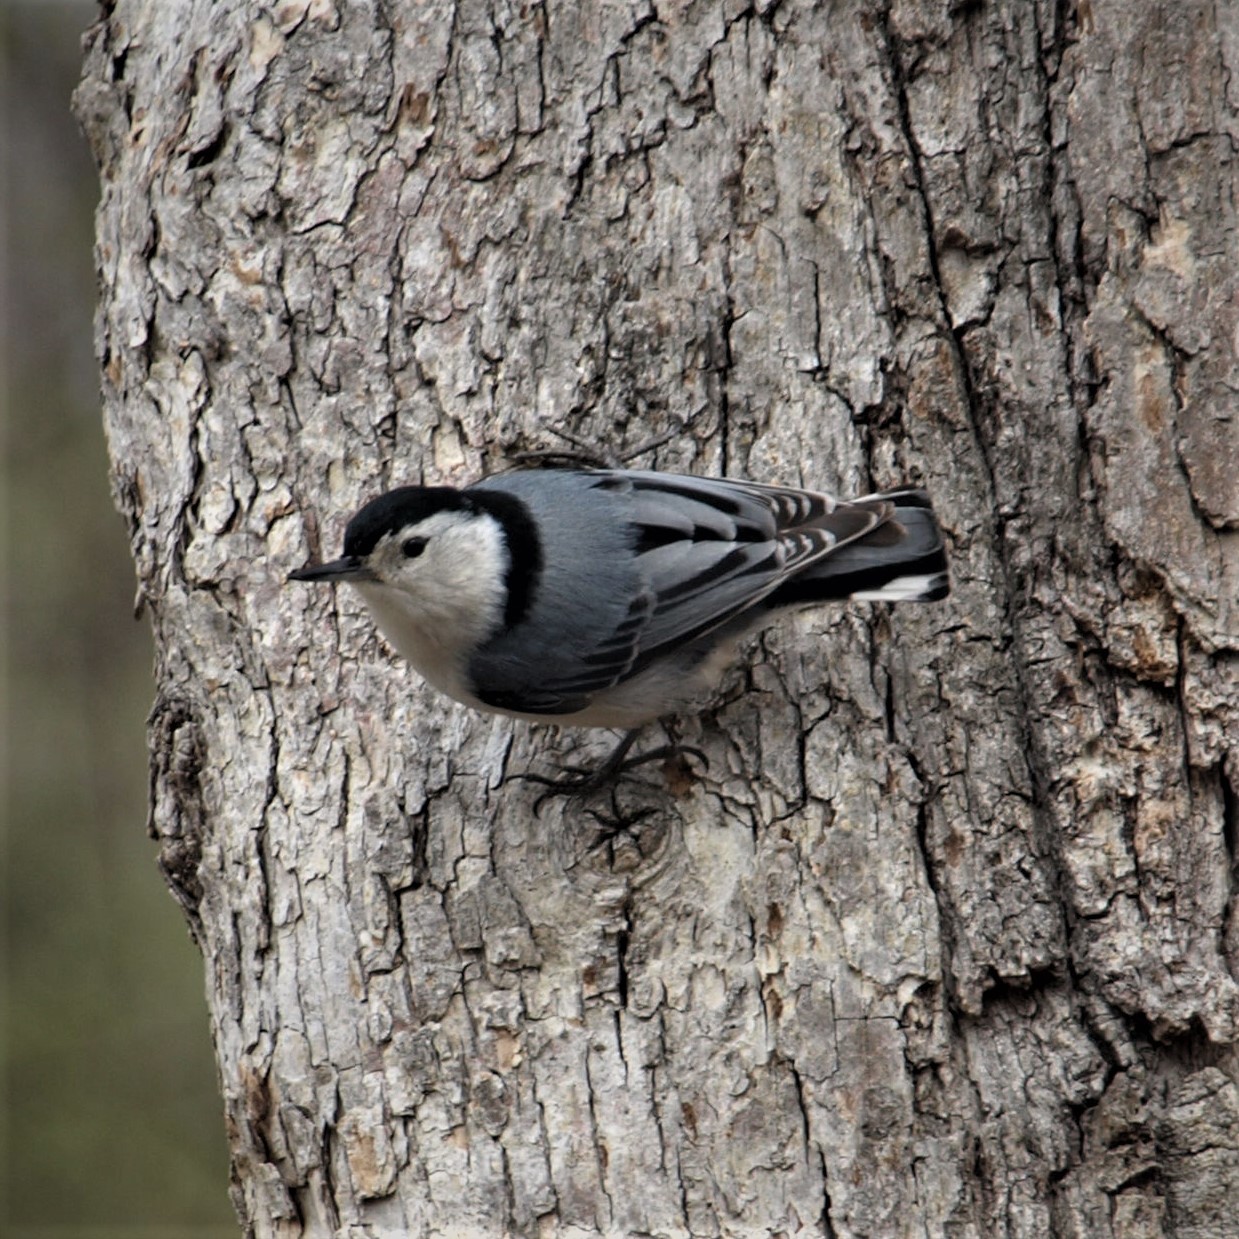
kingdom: Animalia
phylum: Chordata
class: Aves
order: Passeriformes
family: Sittidae
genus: Sitta
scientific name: Sitta carolinensis
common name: White-breasted nuthatch
